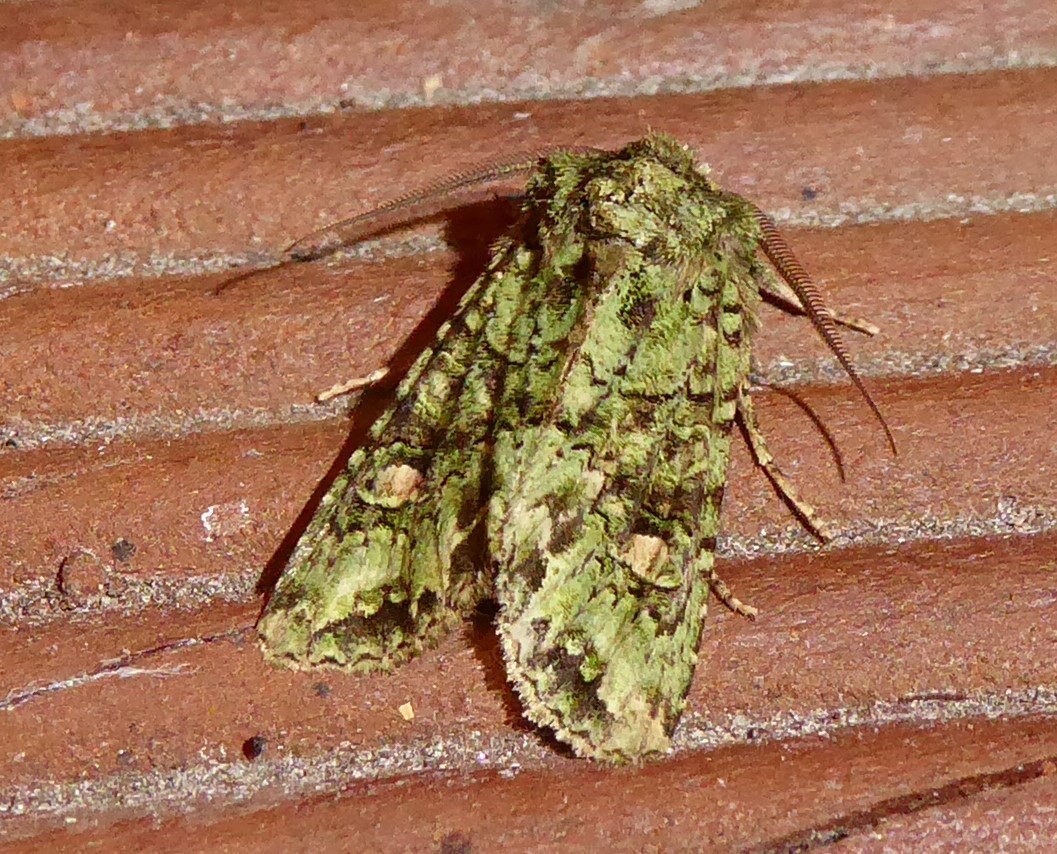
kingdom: Animalia
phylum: Arthropoda
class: Insecta
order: Lepidoptera
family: Noctuidae
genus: Ichneutica
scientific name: Ichneutica
